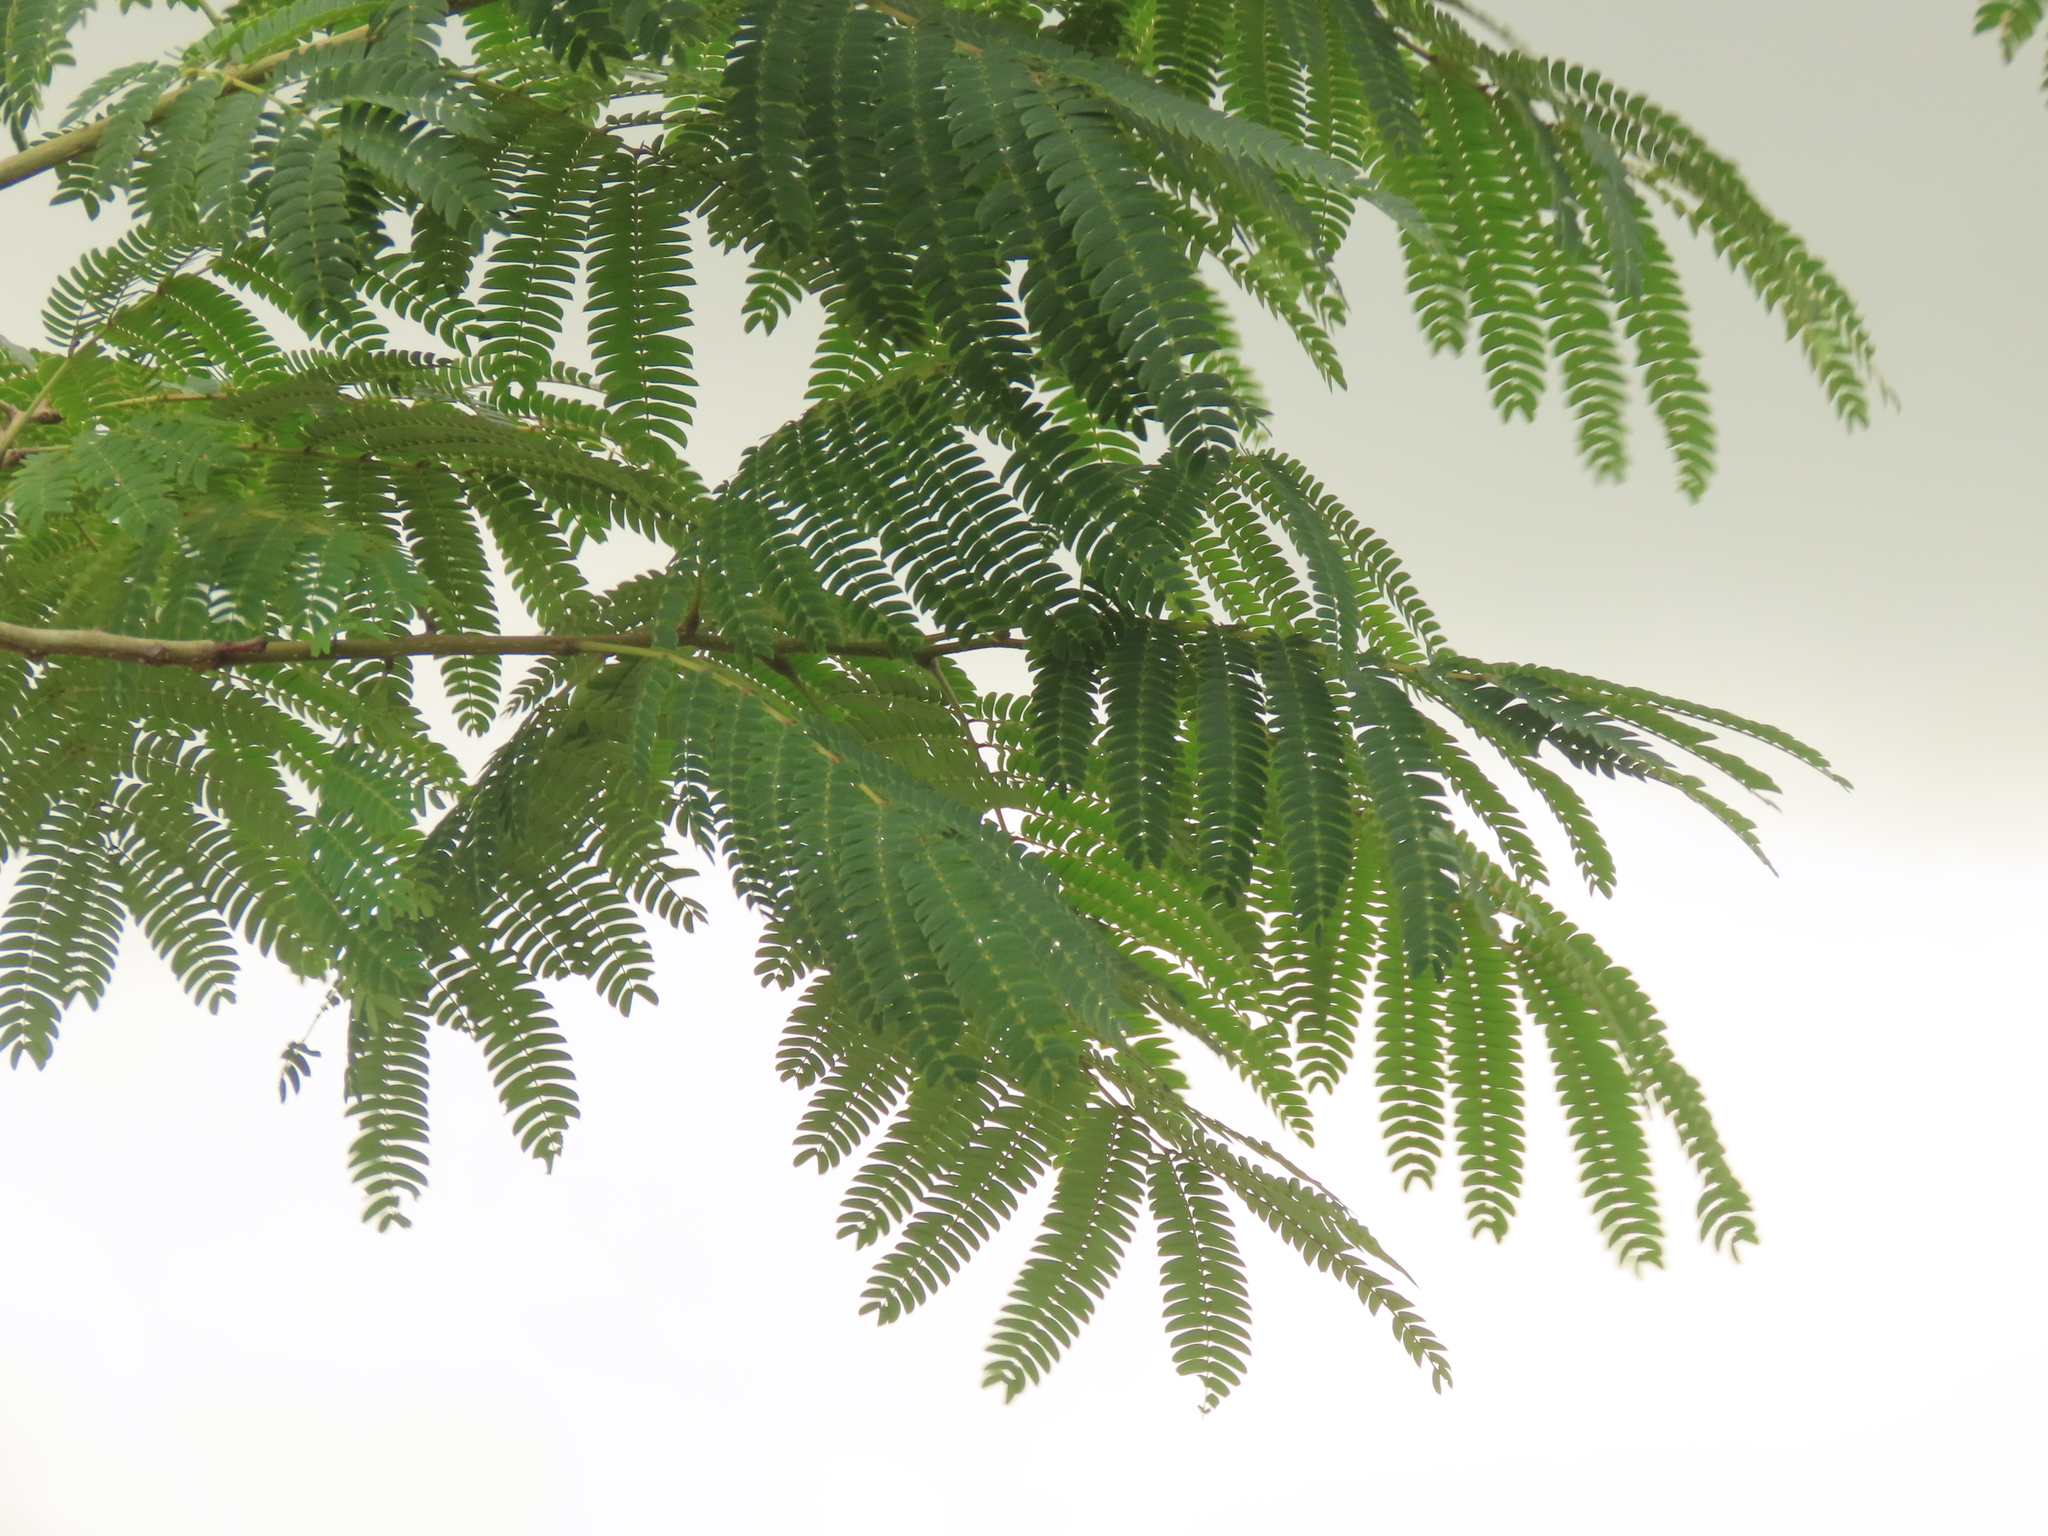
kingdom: Plantae
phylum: Tracheophyta
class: Magnoliopsida
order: Fabales
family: Fabaceae
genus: Albizia
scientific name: Albizia julibrissin
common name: Silktree
